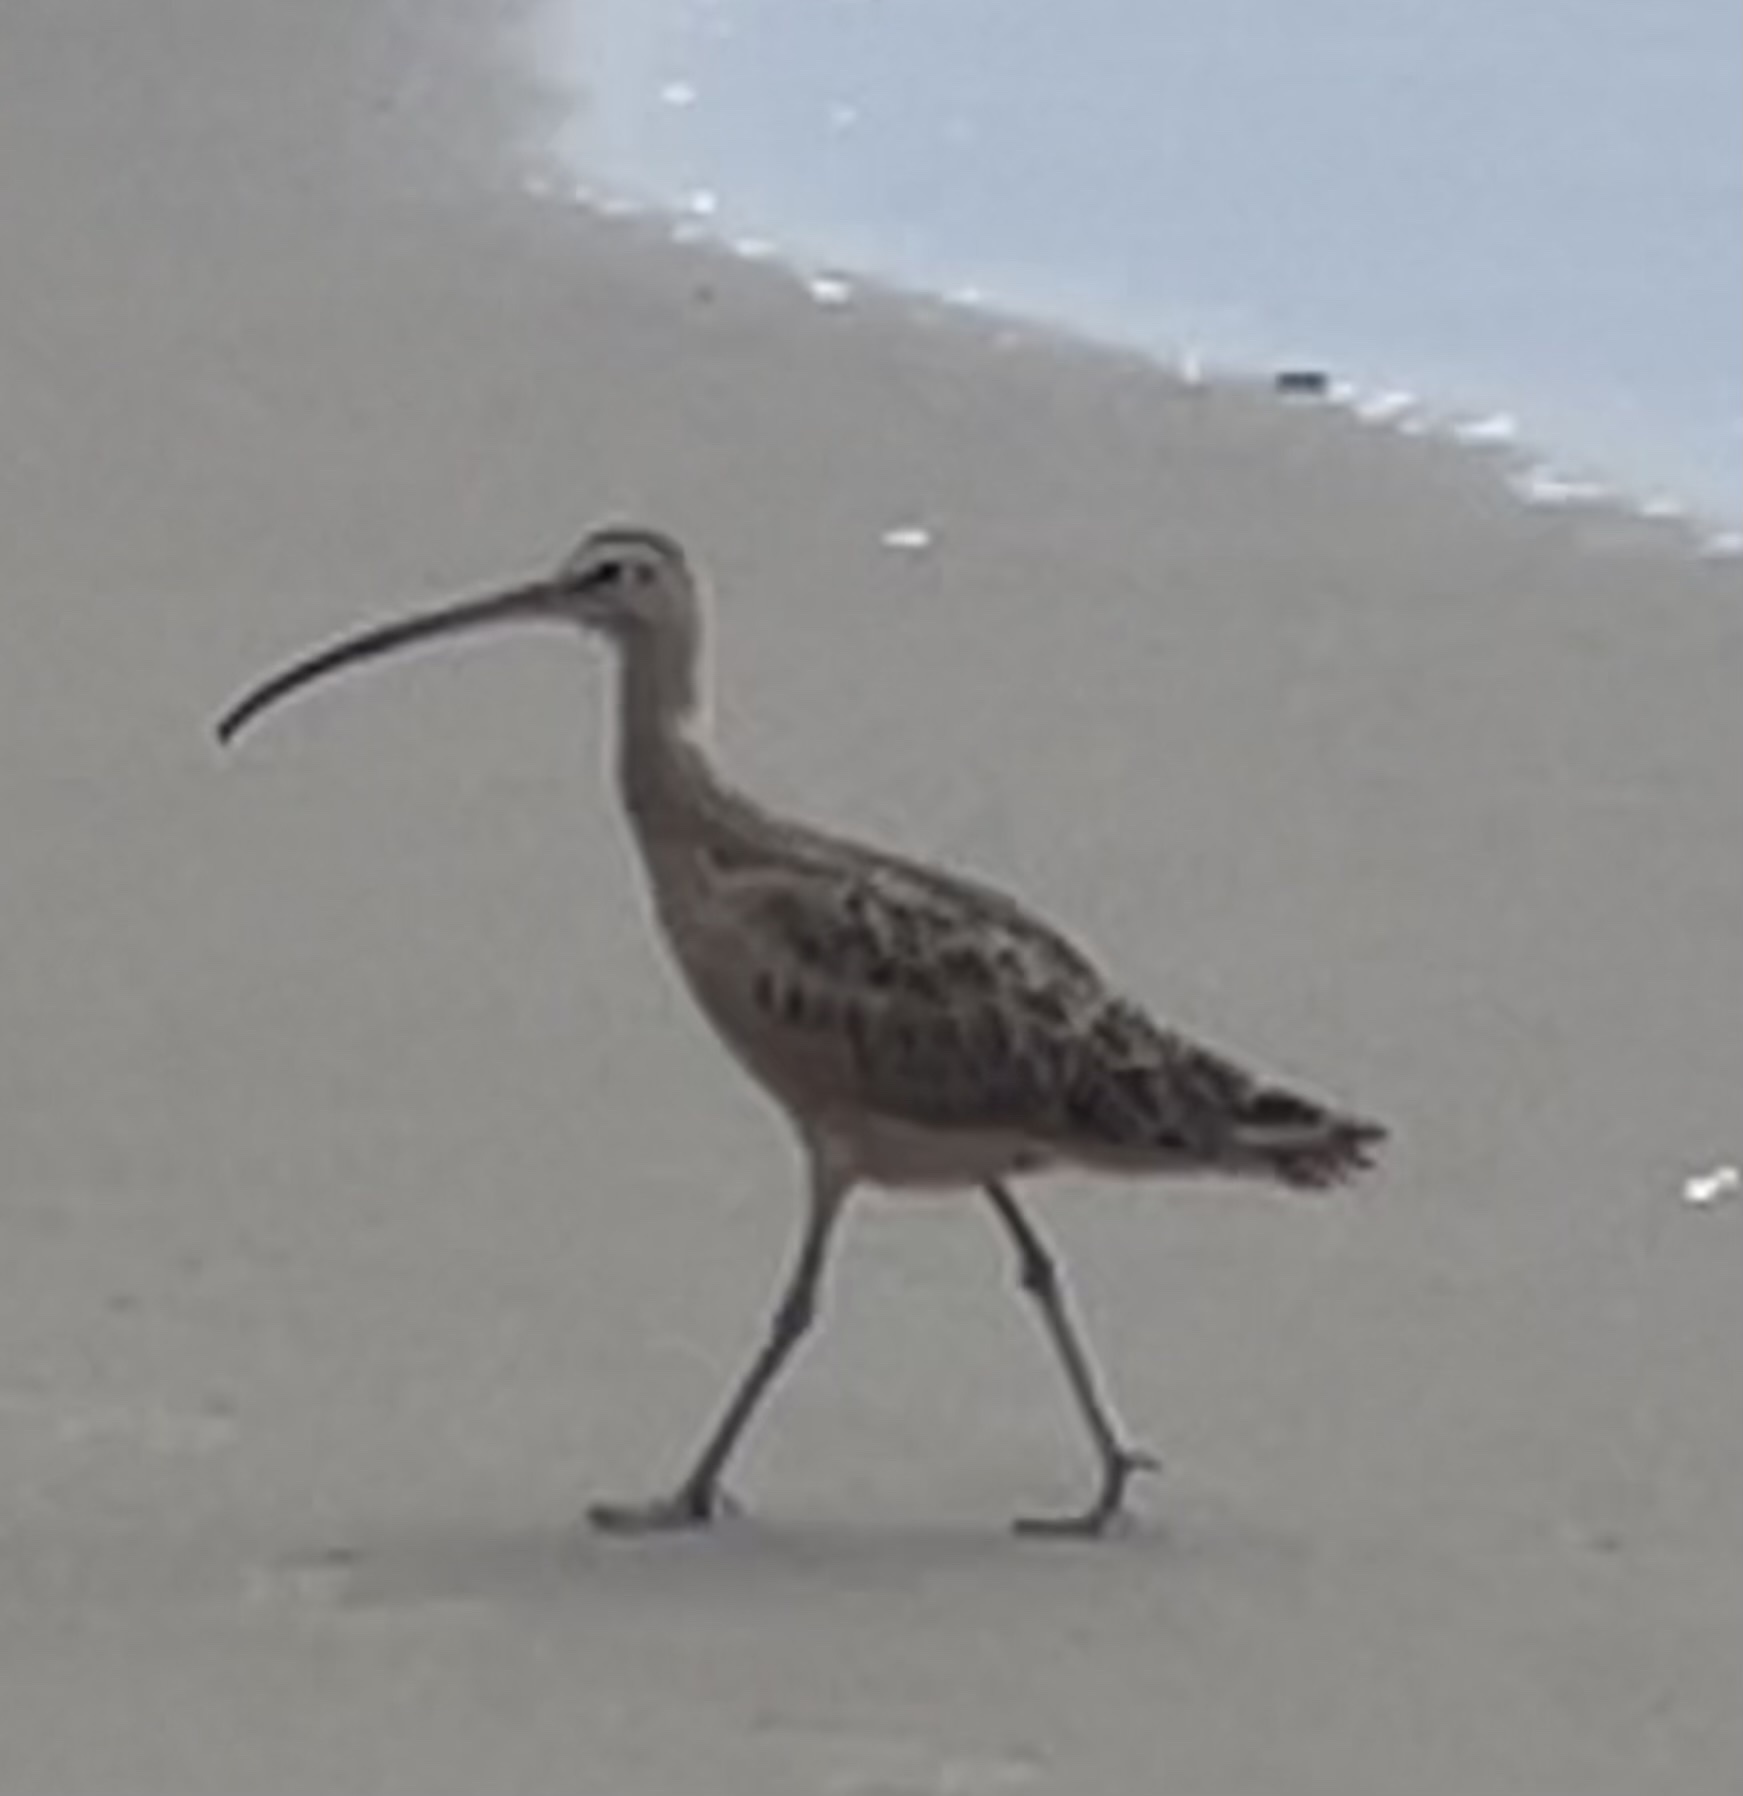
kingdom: Animalia
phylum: Chordata
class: Aves
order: Charadriiformes
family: Scolopacidae
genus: Numenius
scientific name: Numenius americanus
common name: Long-billed curlew
